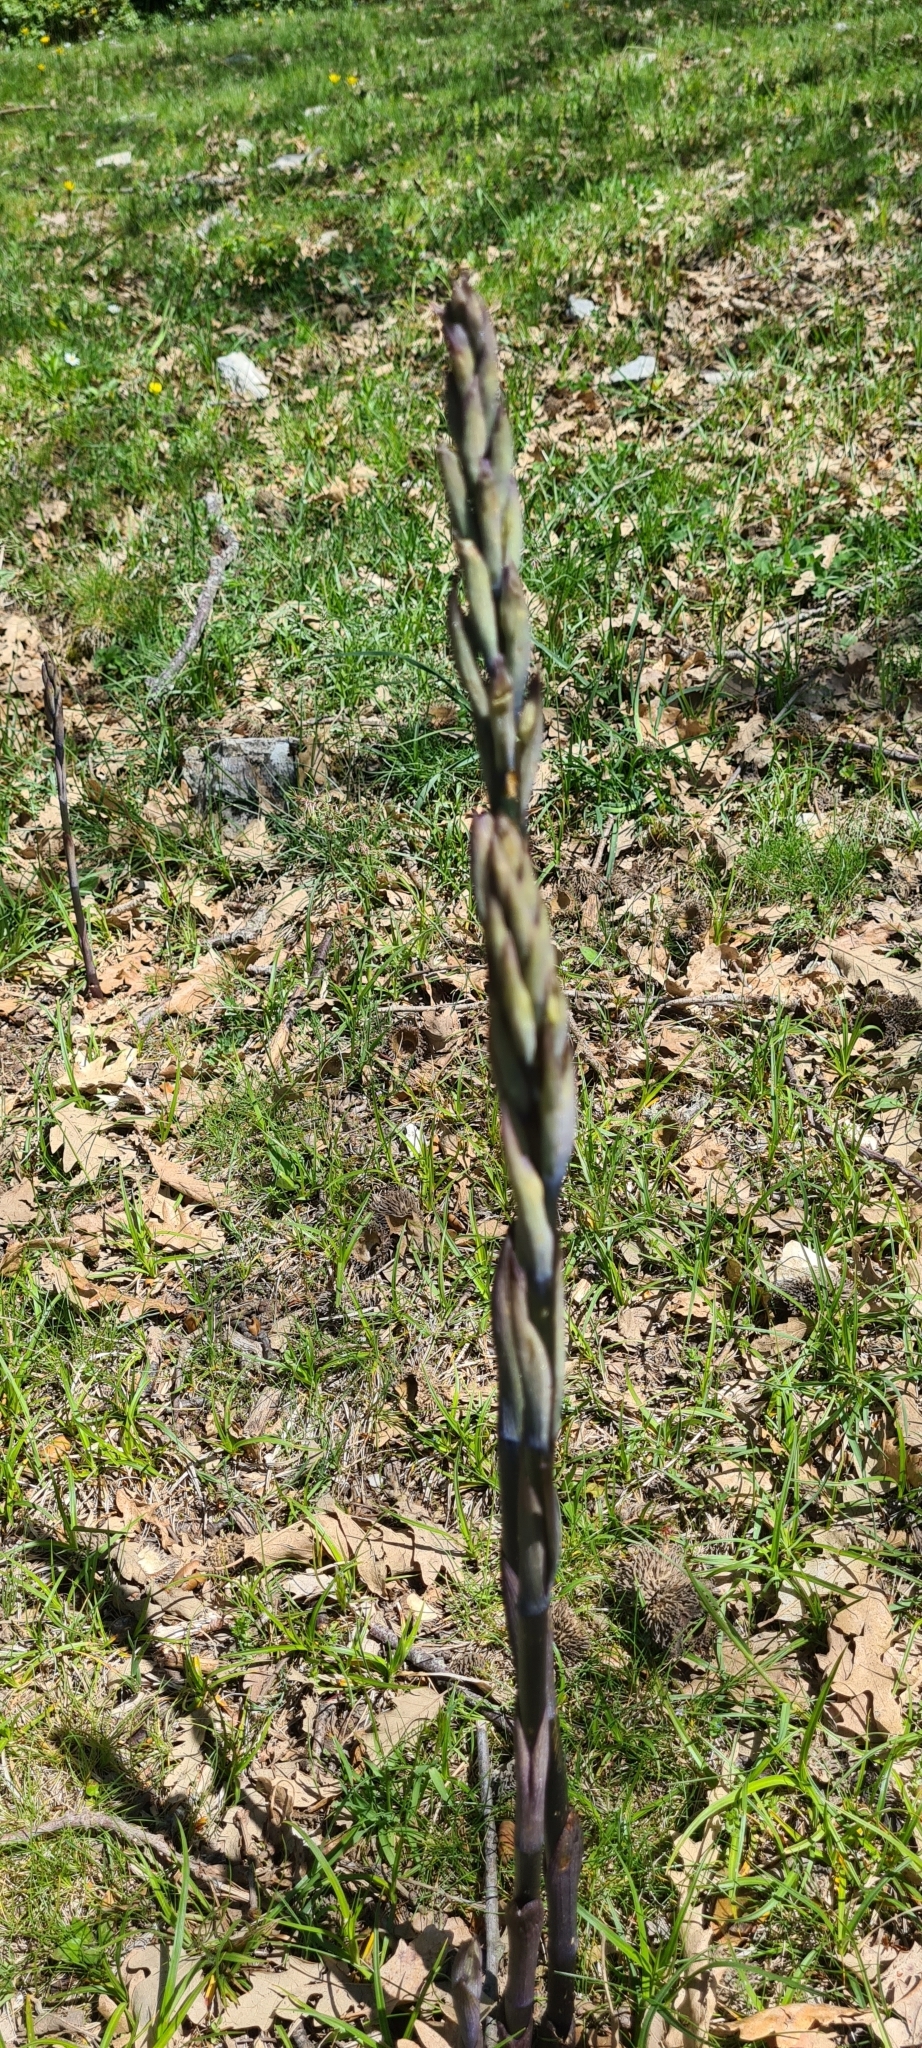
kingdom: Plantae
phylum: Tracheophyta
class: Liliopsida
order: Asparagales
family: Orchidaceae
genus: Limodorum
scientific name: Limodorum abortivum
